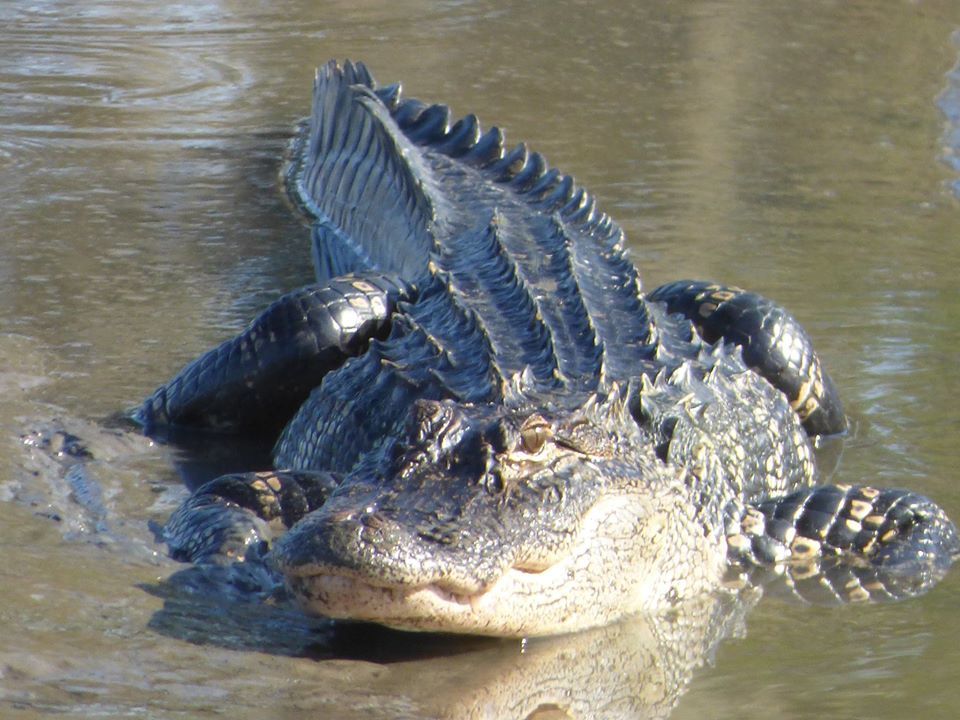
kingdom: Animalia
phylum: Chordata
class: Crocodylia
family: Alligatoridae
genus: Alligator
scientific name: Alligator mississippiensis
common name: American alligator
